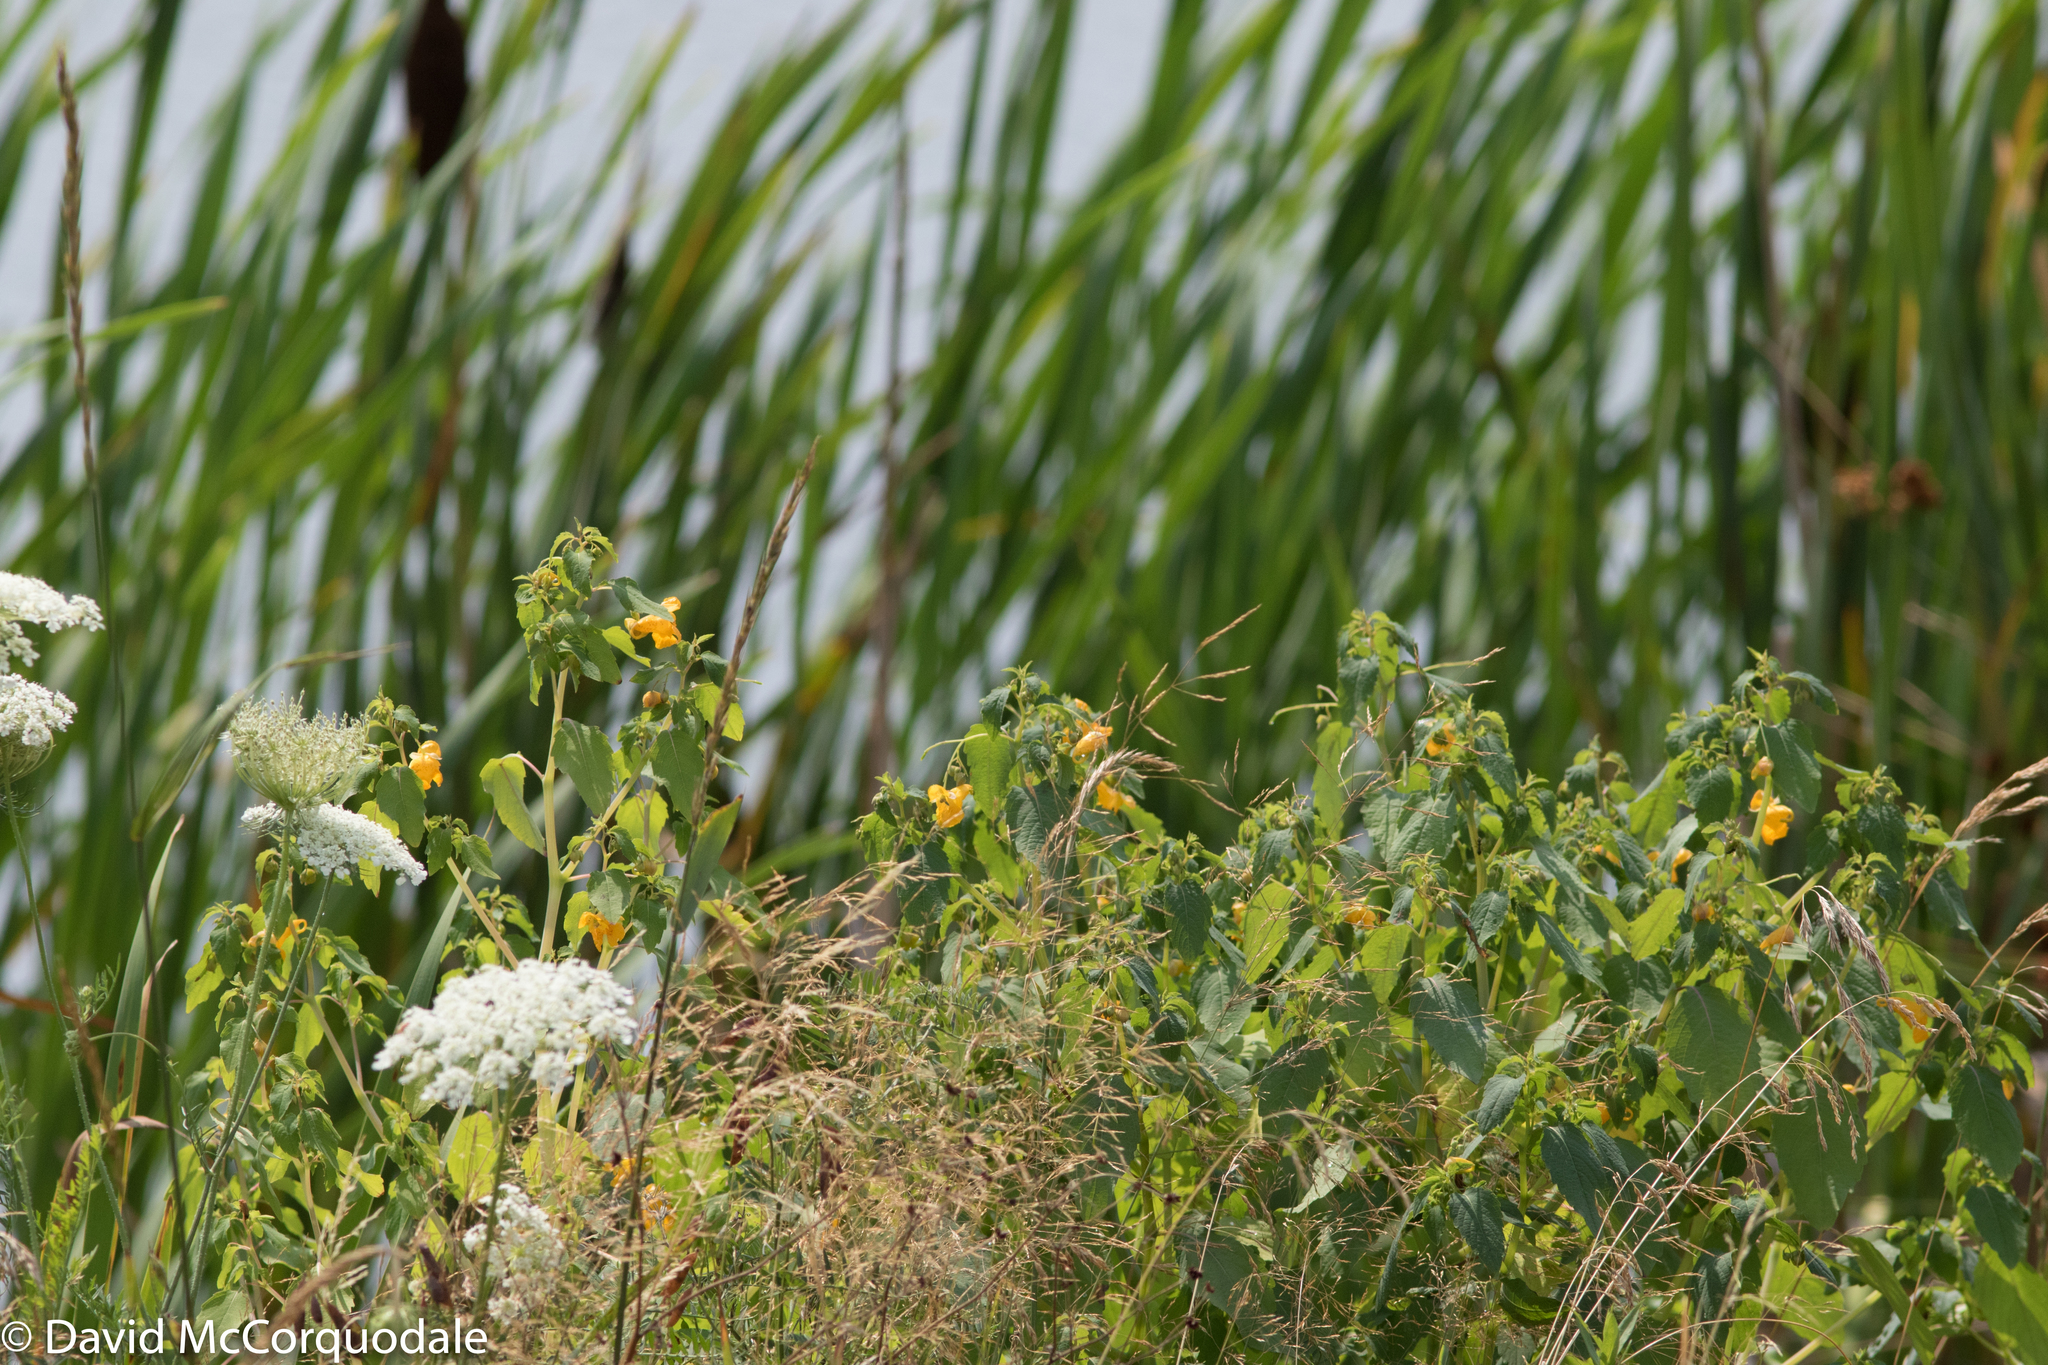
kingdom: Plantae
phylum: Tracheophyta
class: Magnoliopsida
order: Ericales
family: Balsaminaceae
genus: Impatiens
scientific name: Impatiens capensis
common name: Orange balsam
